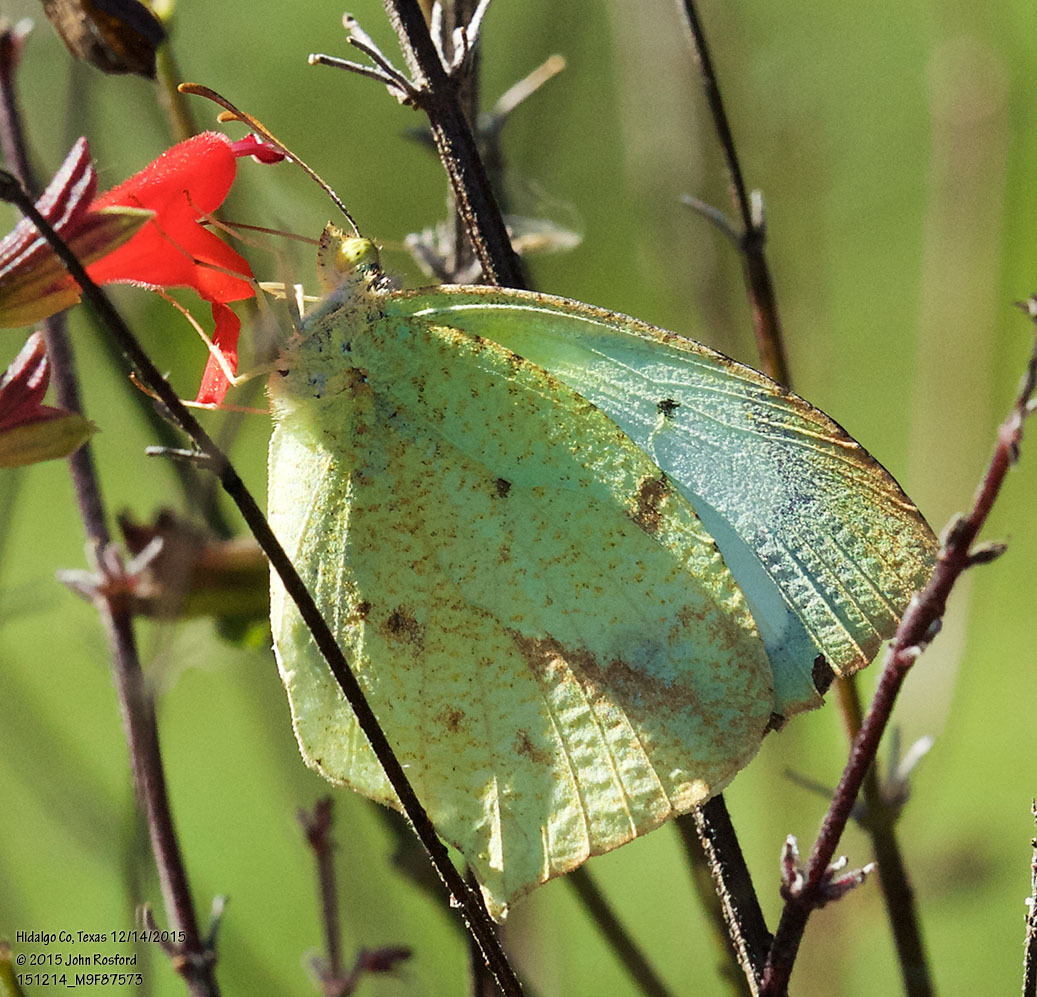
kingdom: Animalia
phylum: Arthropoda
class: Insecta
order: Lepidoptera
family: Pieridae
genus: Abaeis
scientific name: Abaeis mexicana
